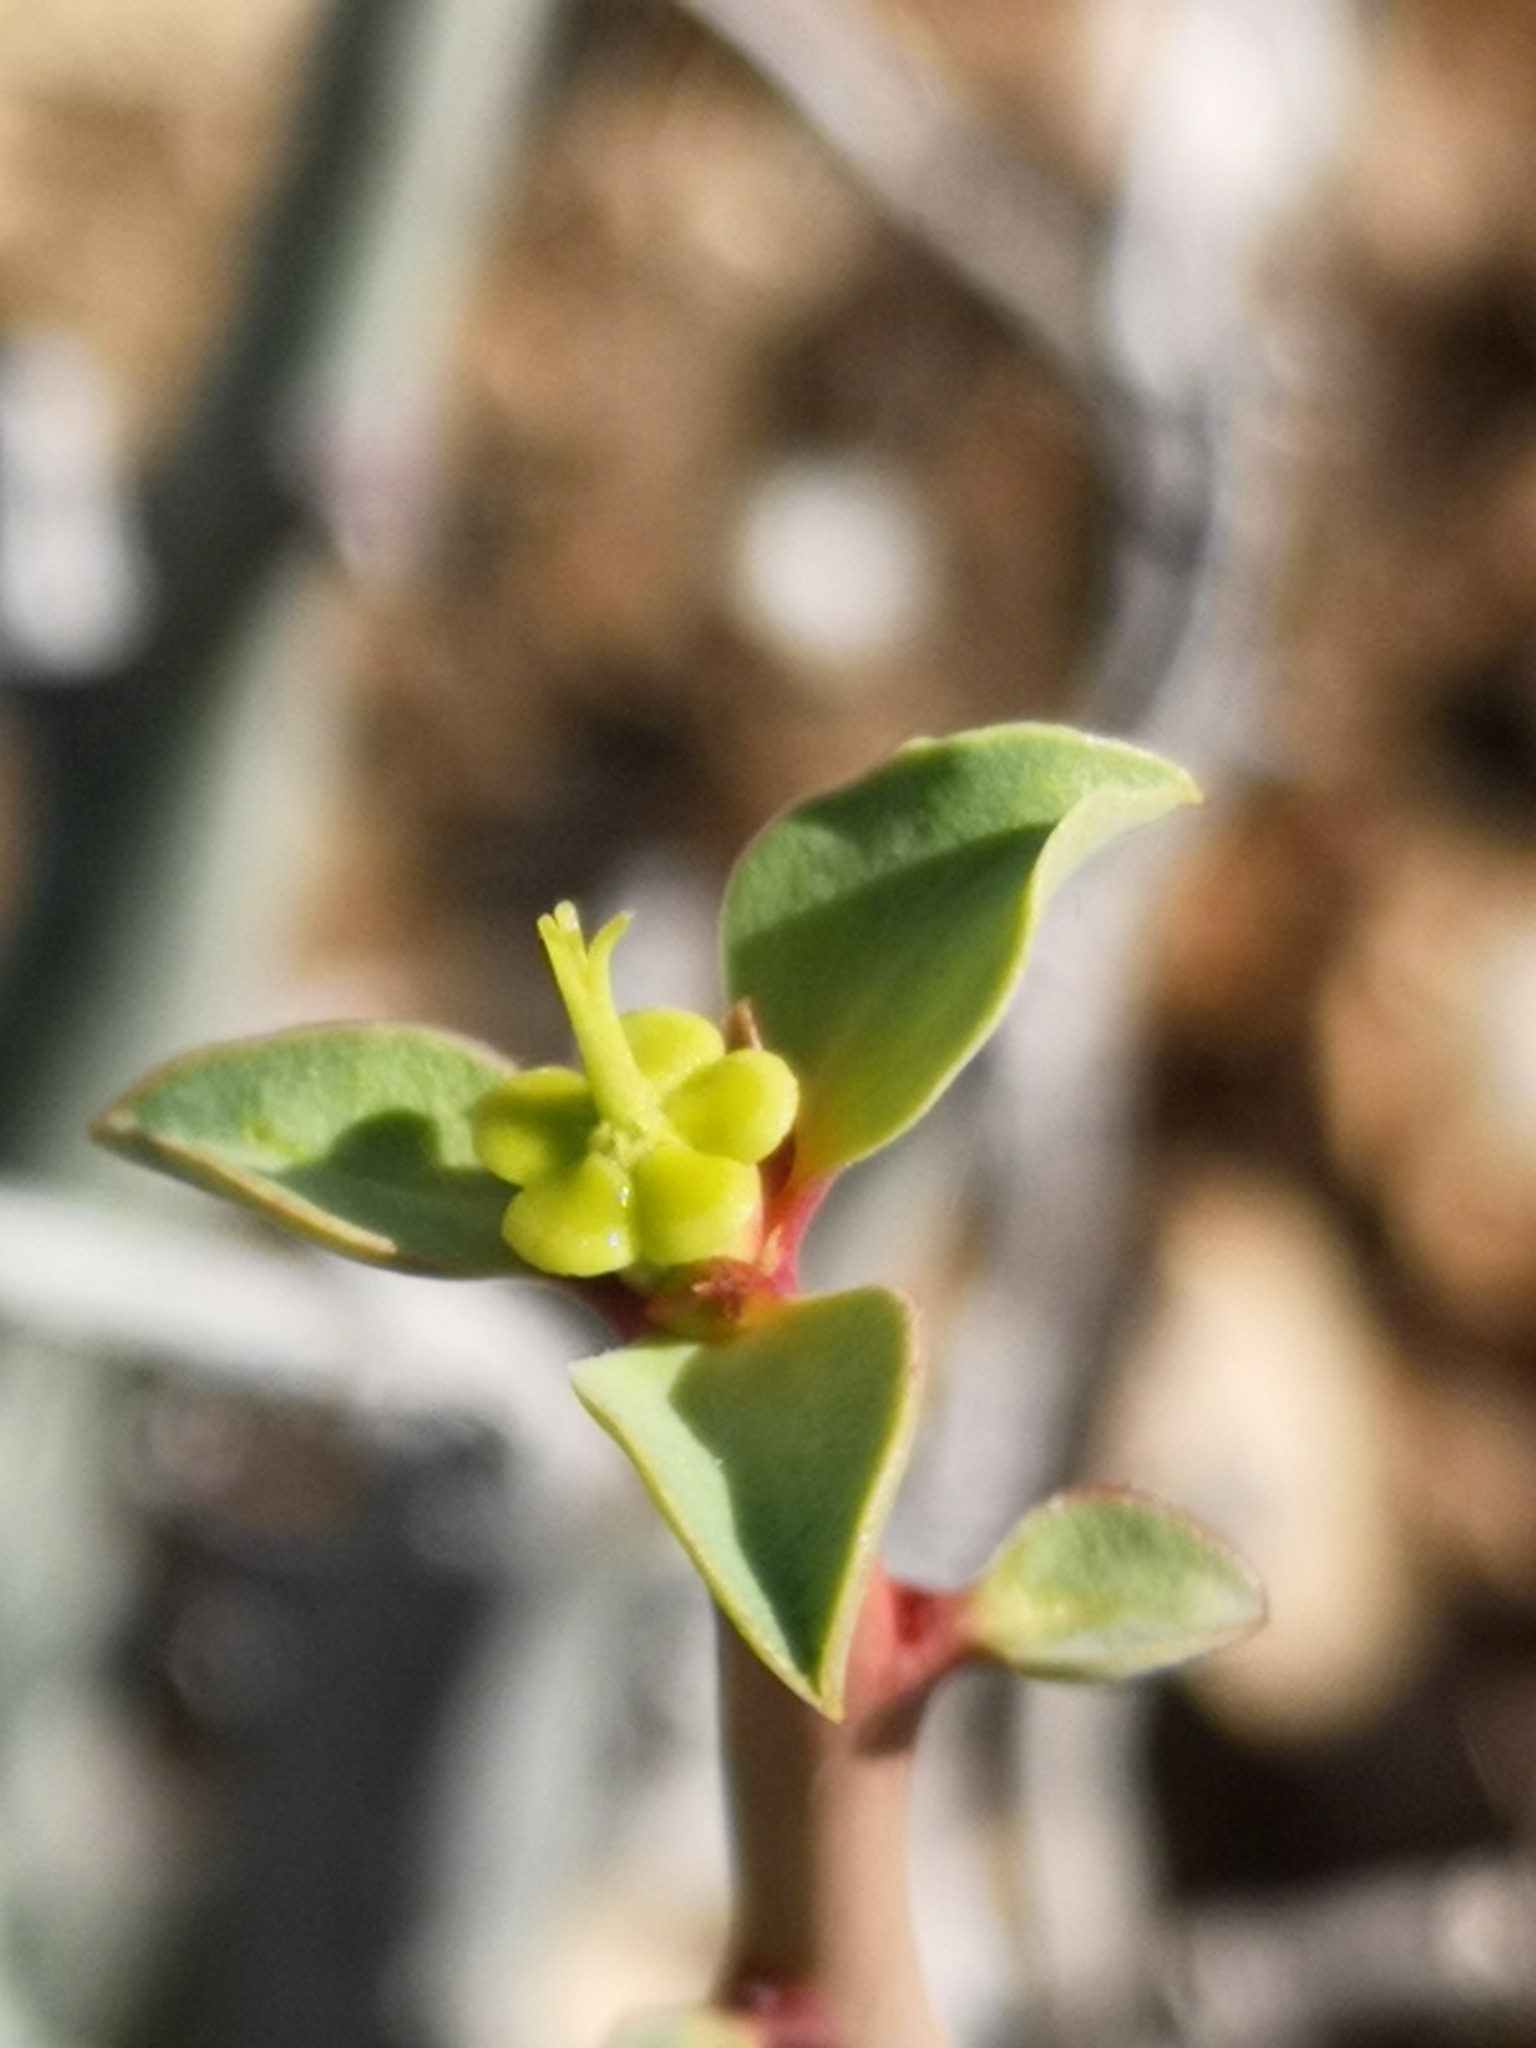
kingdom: Plantae
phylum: Tracheophyta
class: Magnoliopsida
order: Malpighiales
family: Euphorbiaceae
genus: Euphorbia
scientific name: Euphorbia gariepina
